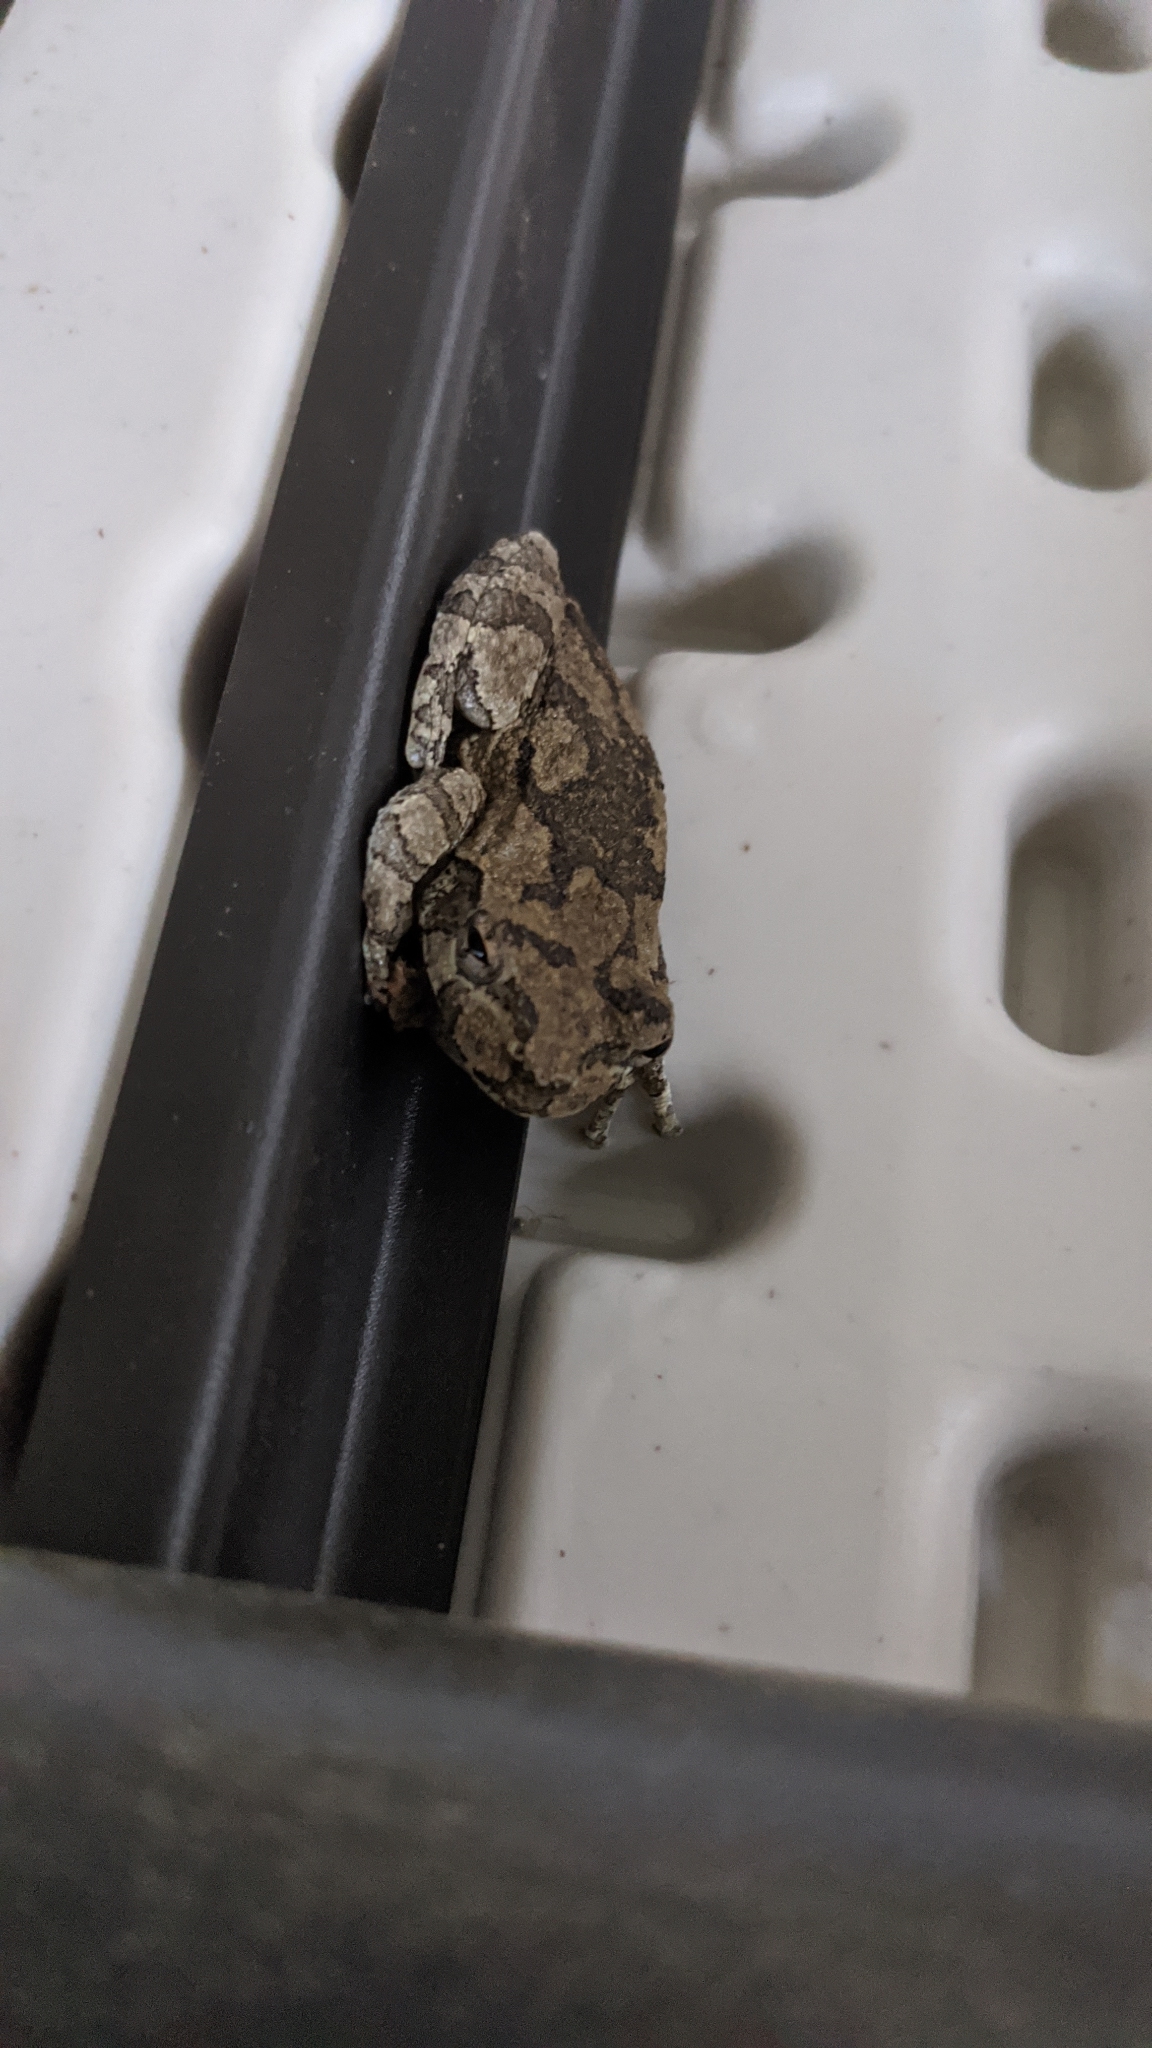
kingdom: Animalia
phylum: Chordata
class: Amphibia
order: Anura
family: Hylidae
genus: Dryophytes
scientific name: Dryophytes versicolor
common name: Gray treefrog
